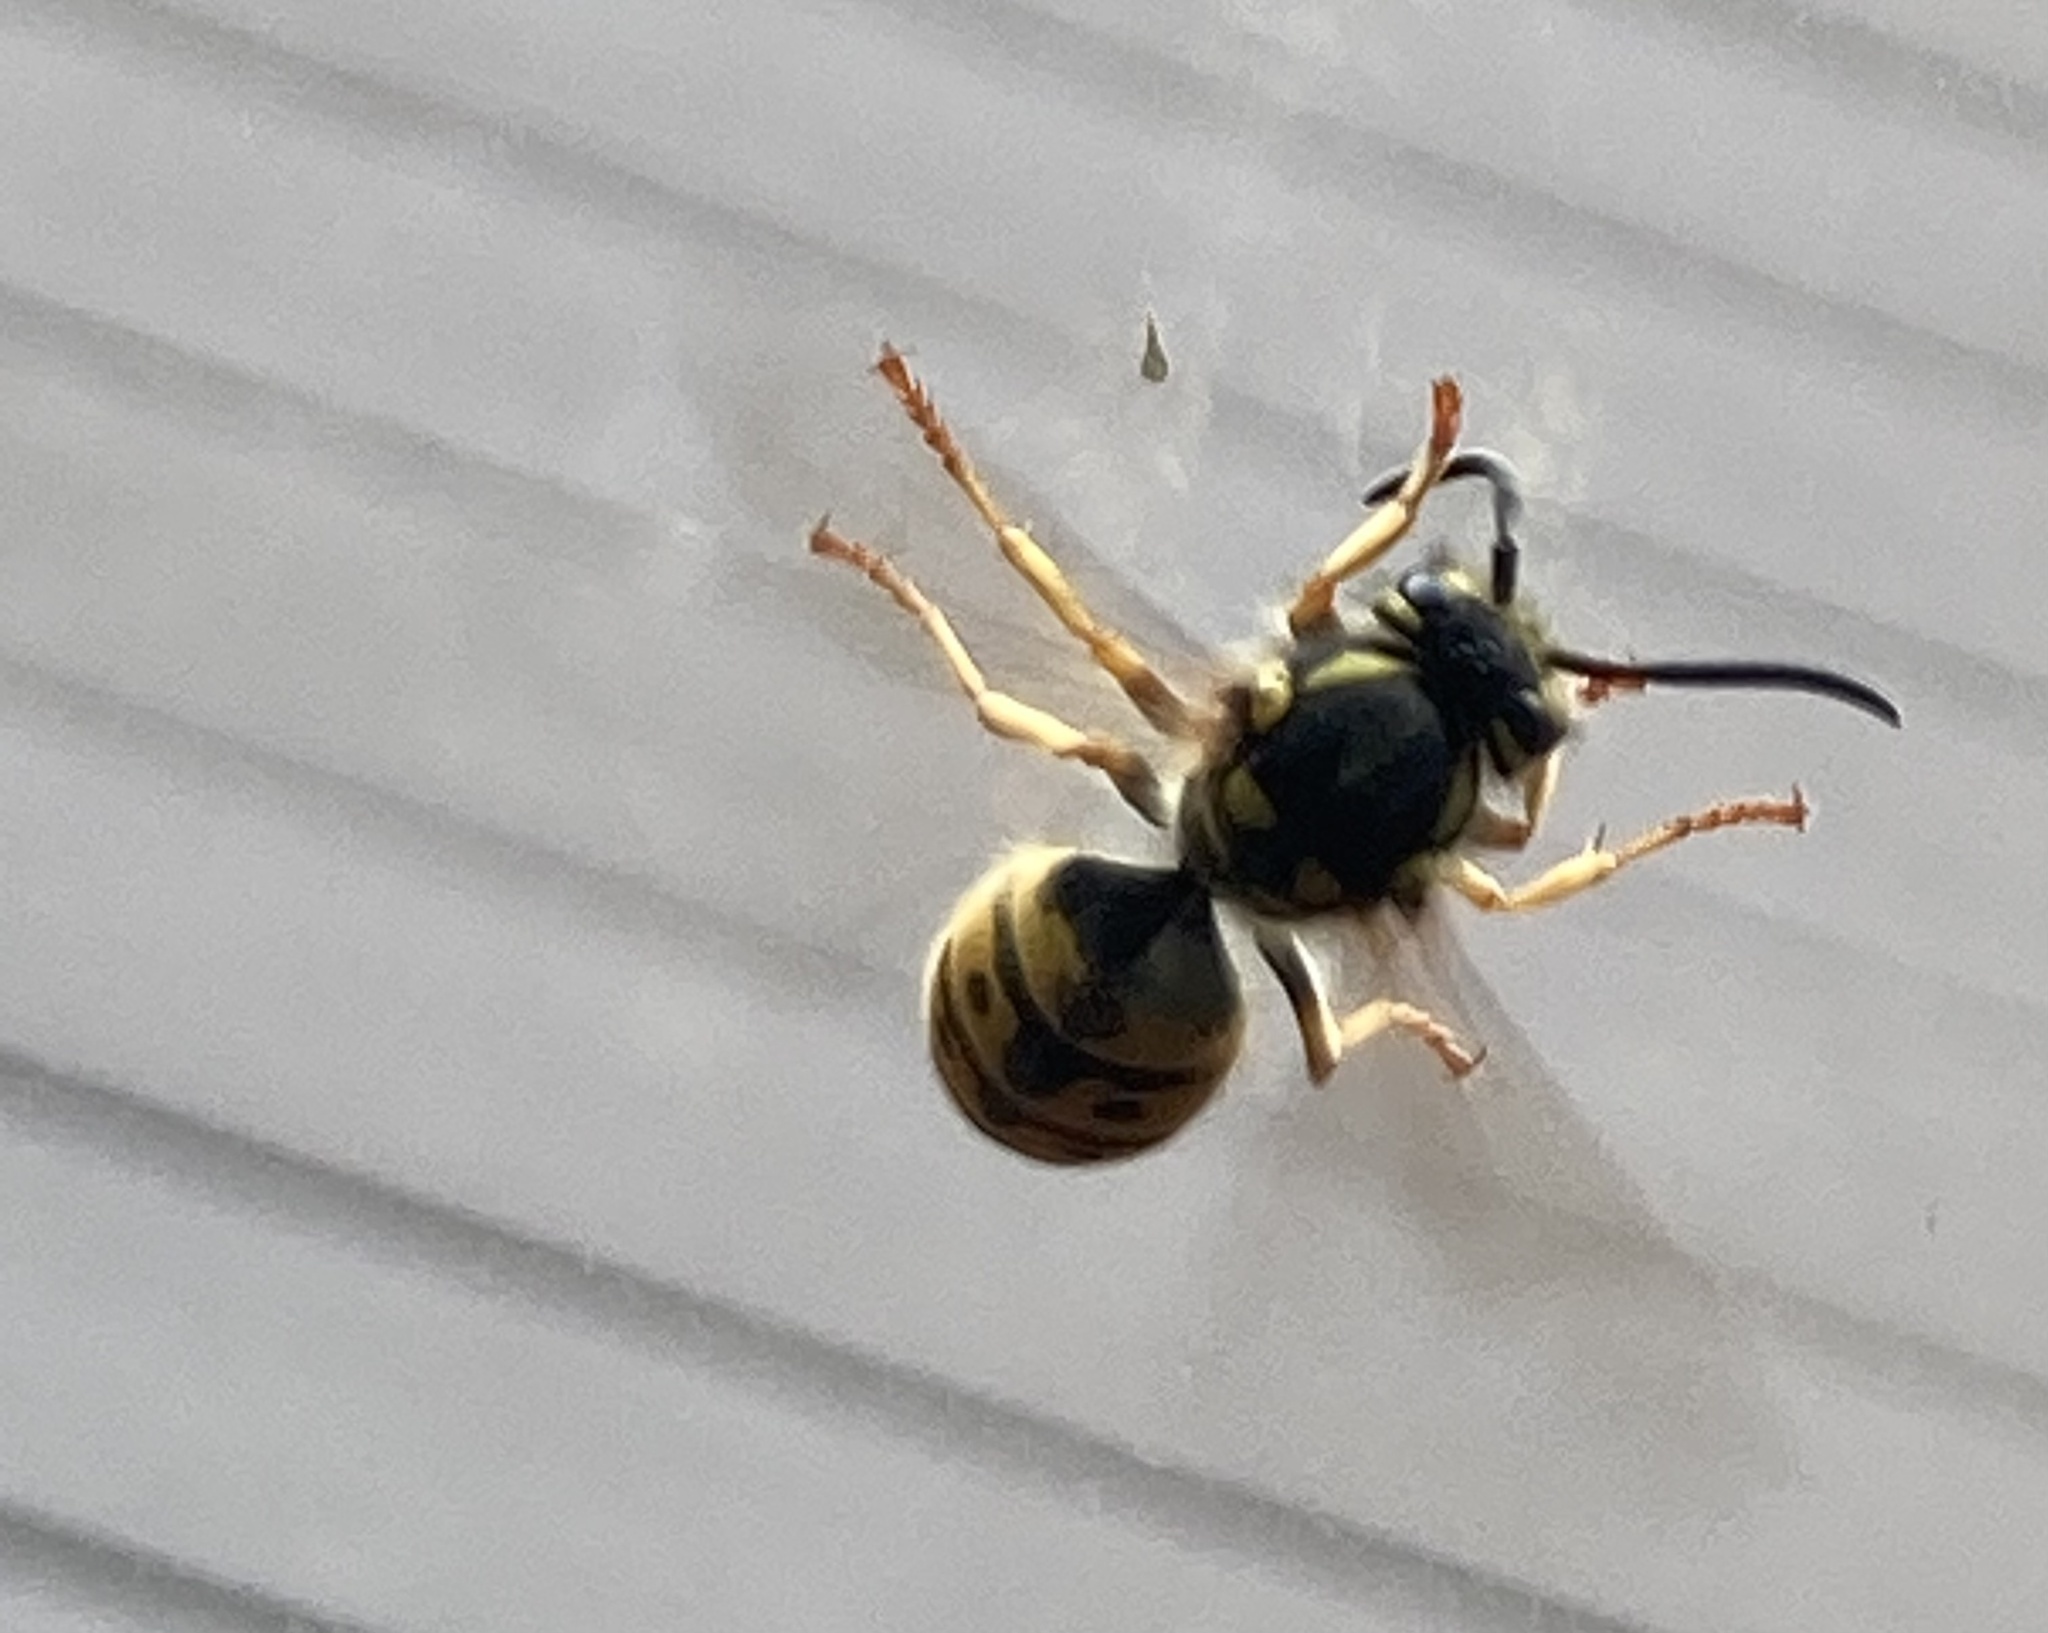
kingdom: Animalia
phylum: Arthropoda
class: Insecta
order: Hymenoptera
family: Vespidae
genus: Vespula
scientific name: Vespula germanica
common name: German wasp
